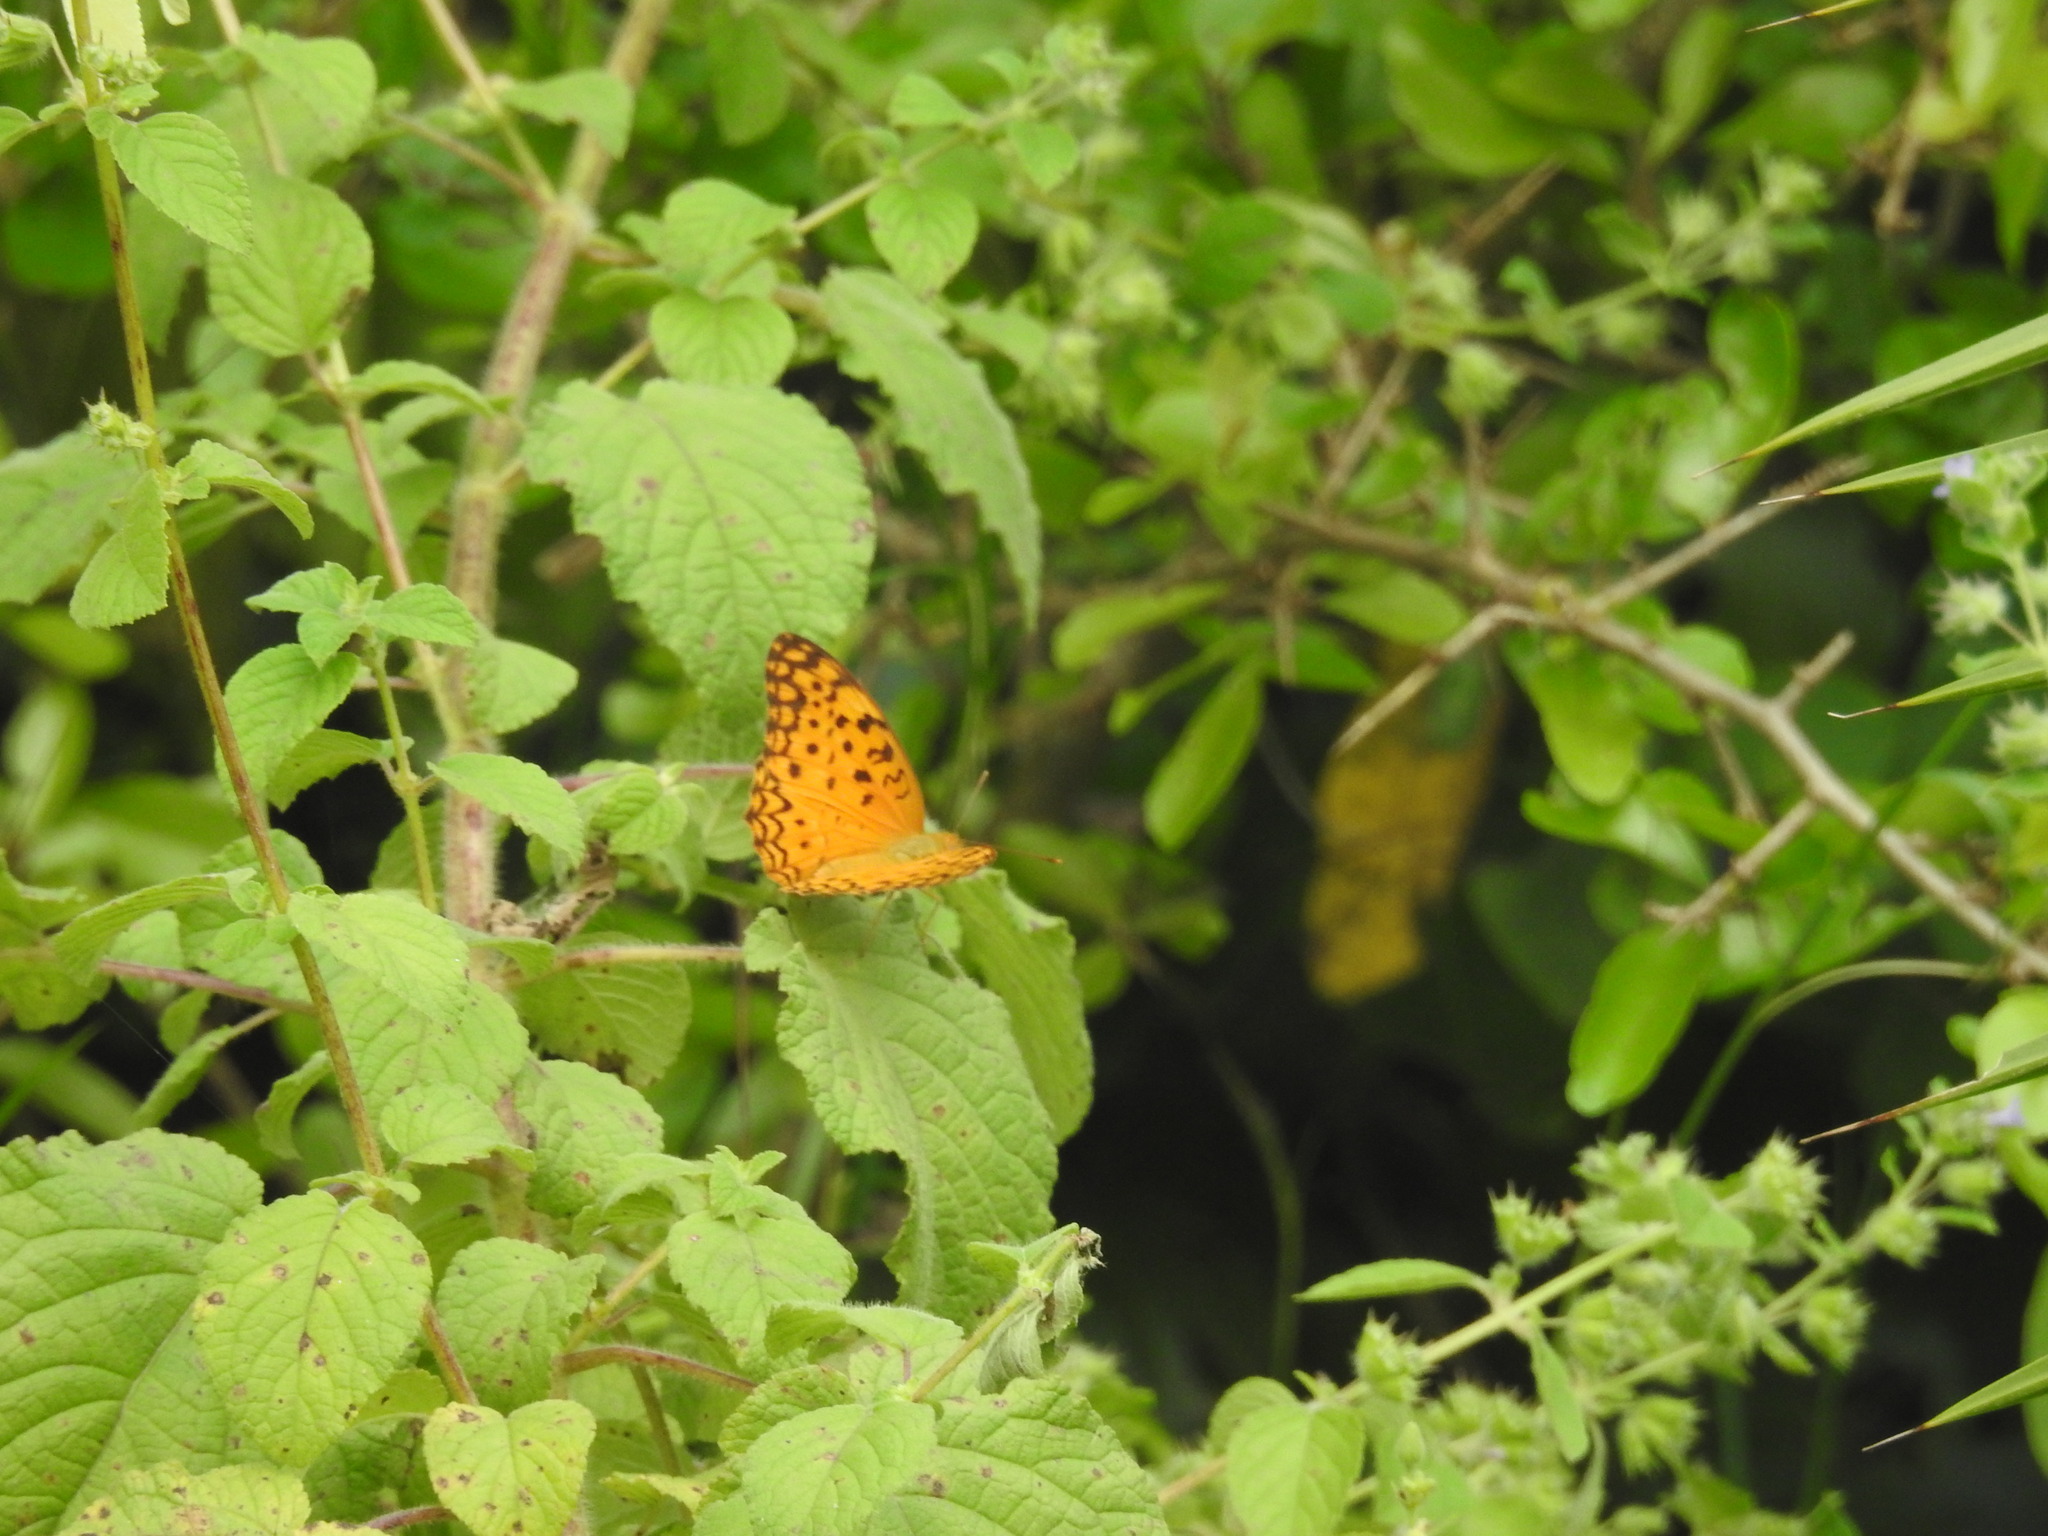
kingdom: Animalia
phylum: Arthropoda
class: Insecta
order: Lepidoptera
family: Nymphalidae
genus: Phalanta
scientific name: Phalanta phalantha
